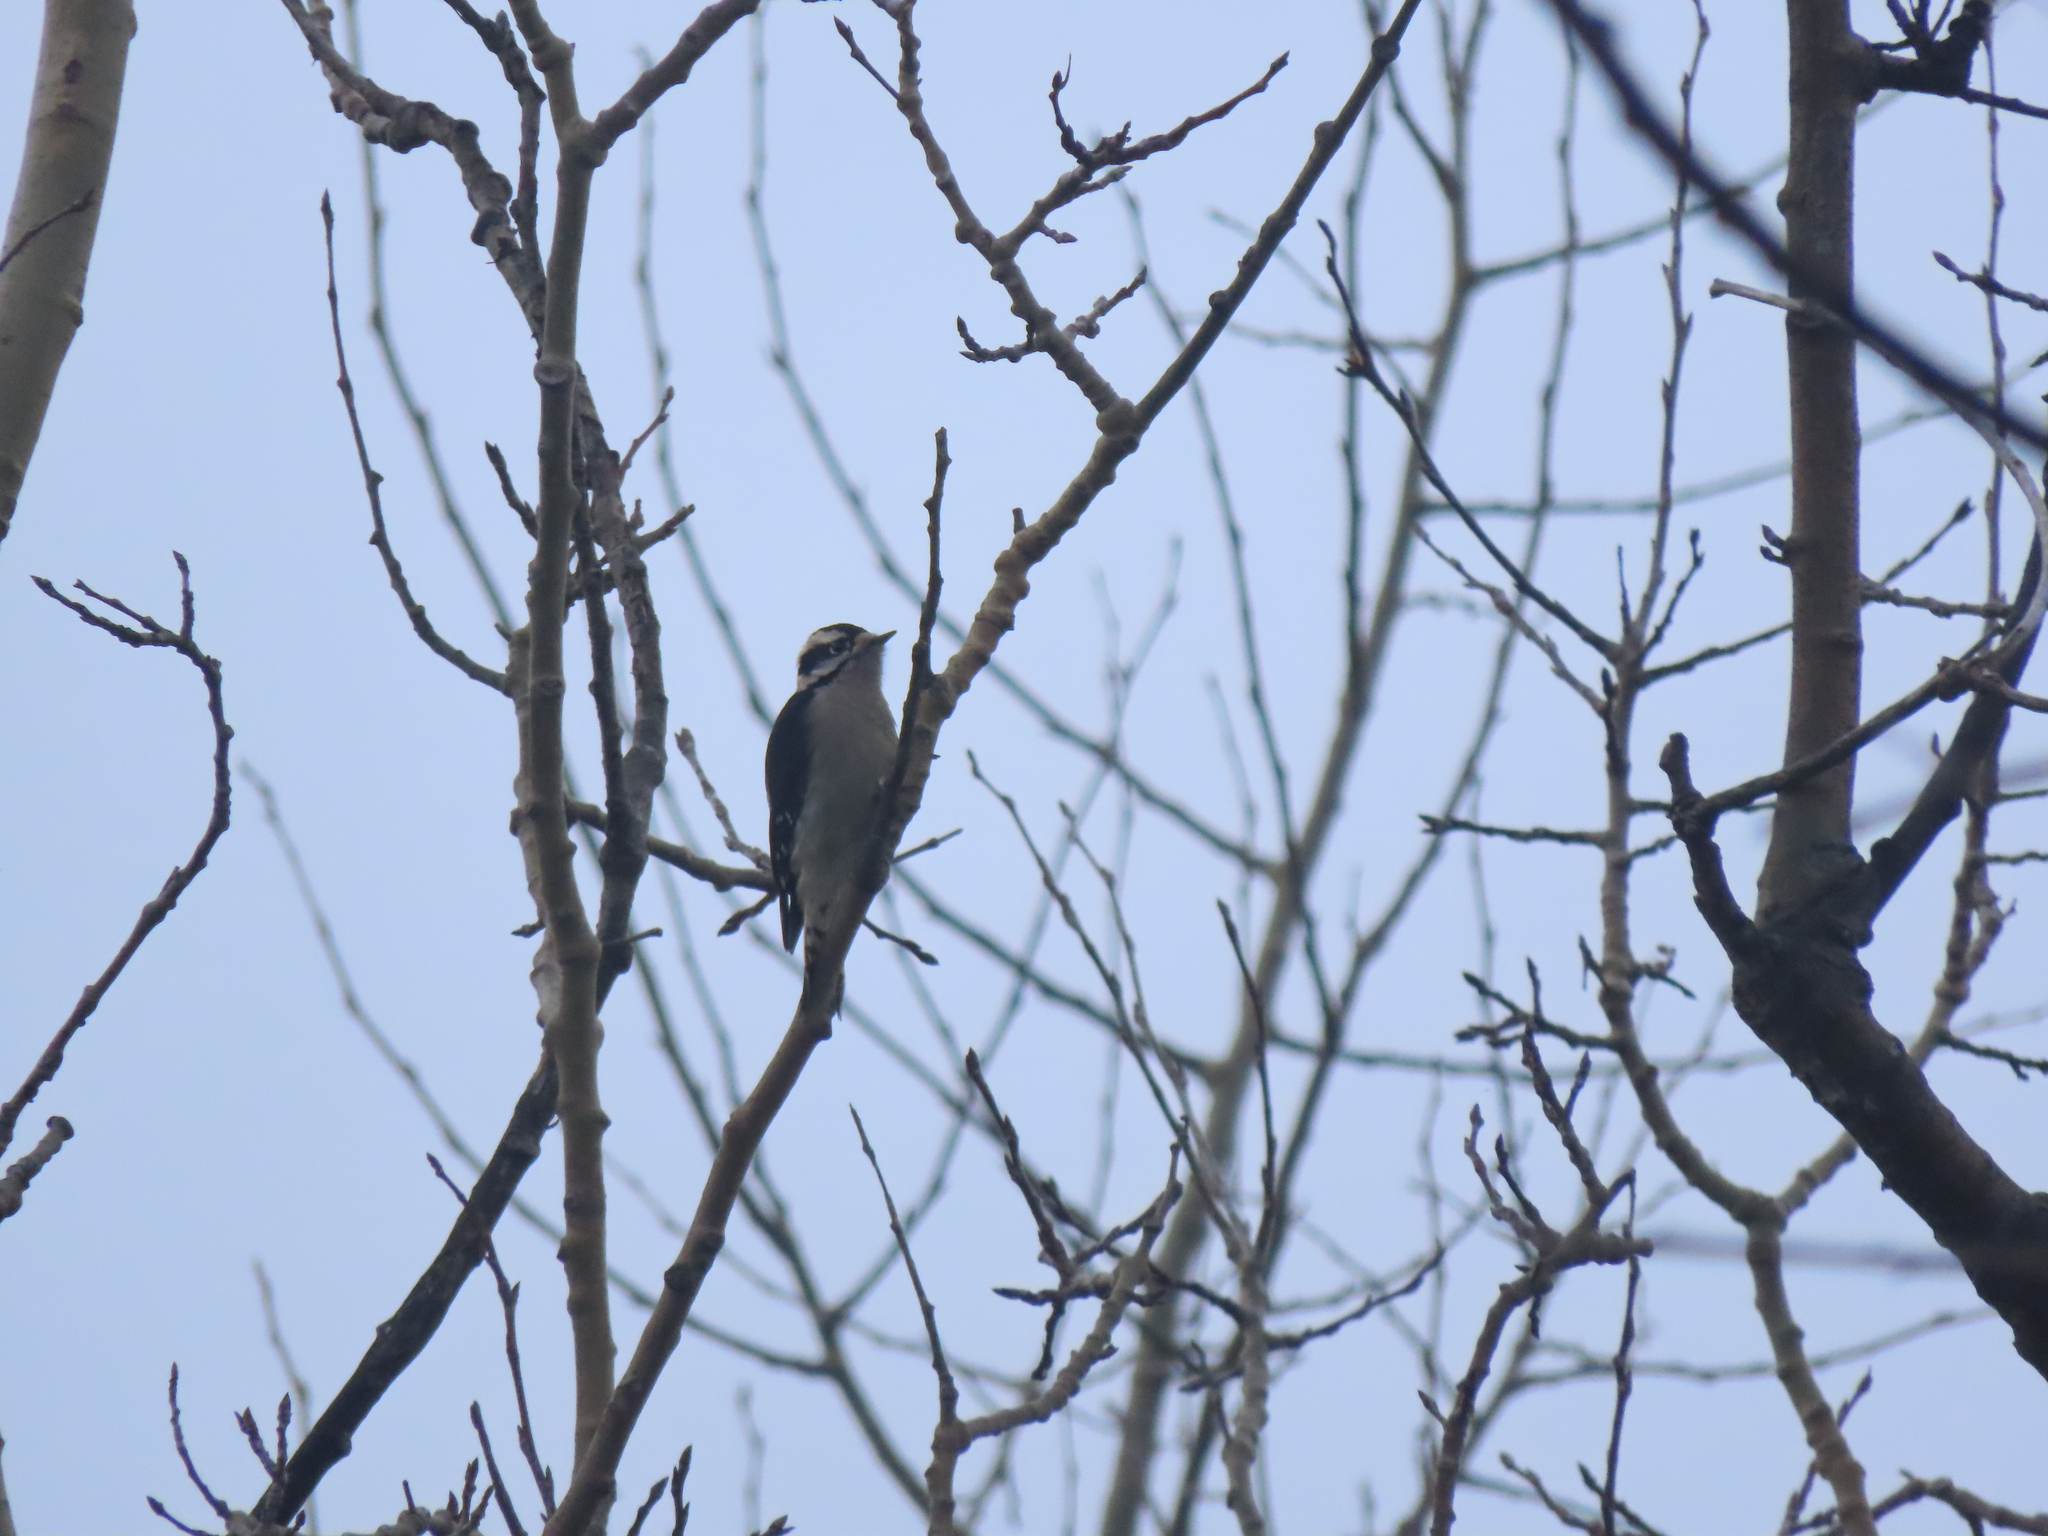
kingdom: Animalia
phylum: Chordata
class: Aves
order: Piciformes
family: Picidae
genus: Dryobates
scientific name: Dryobates pubescens
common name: Downy woodpecker
